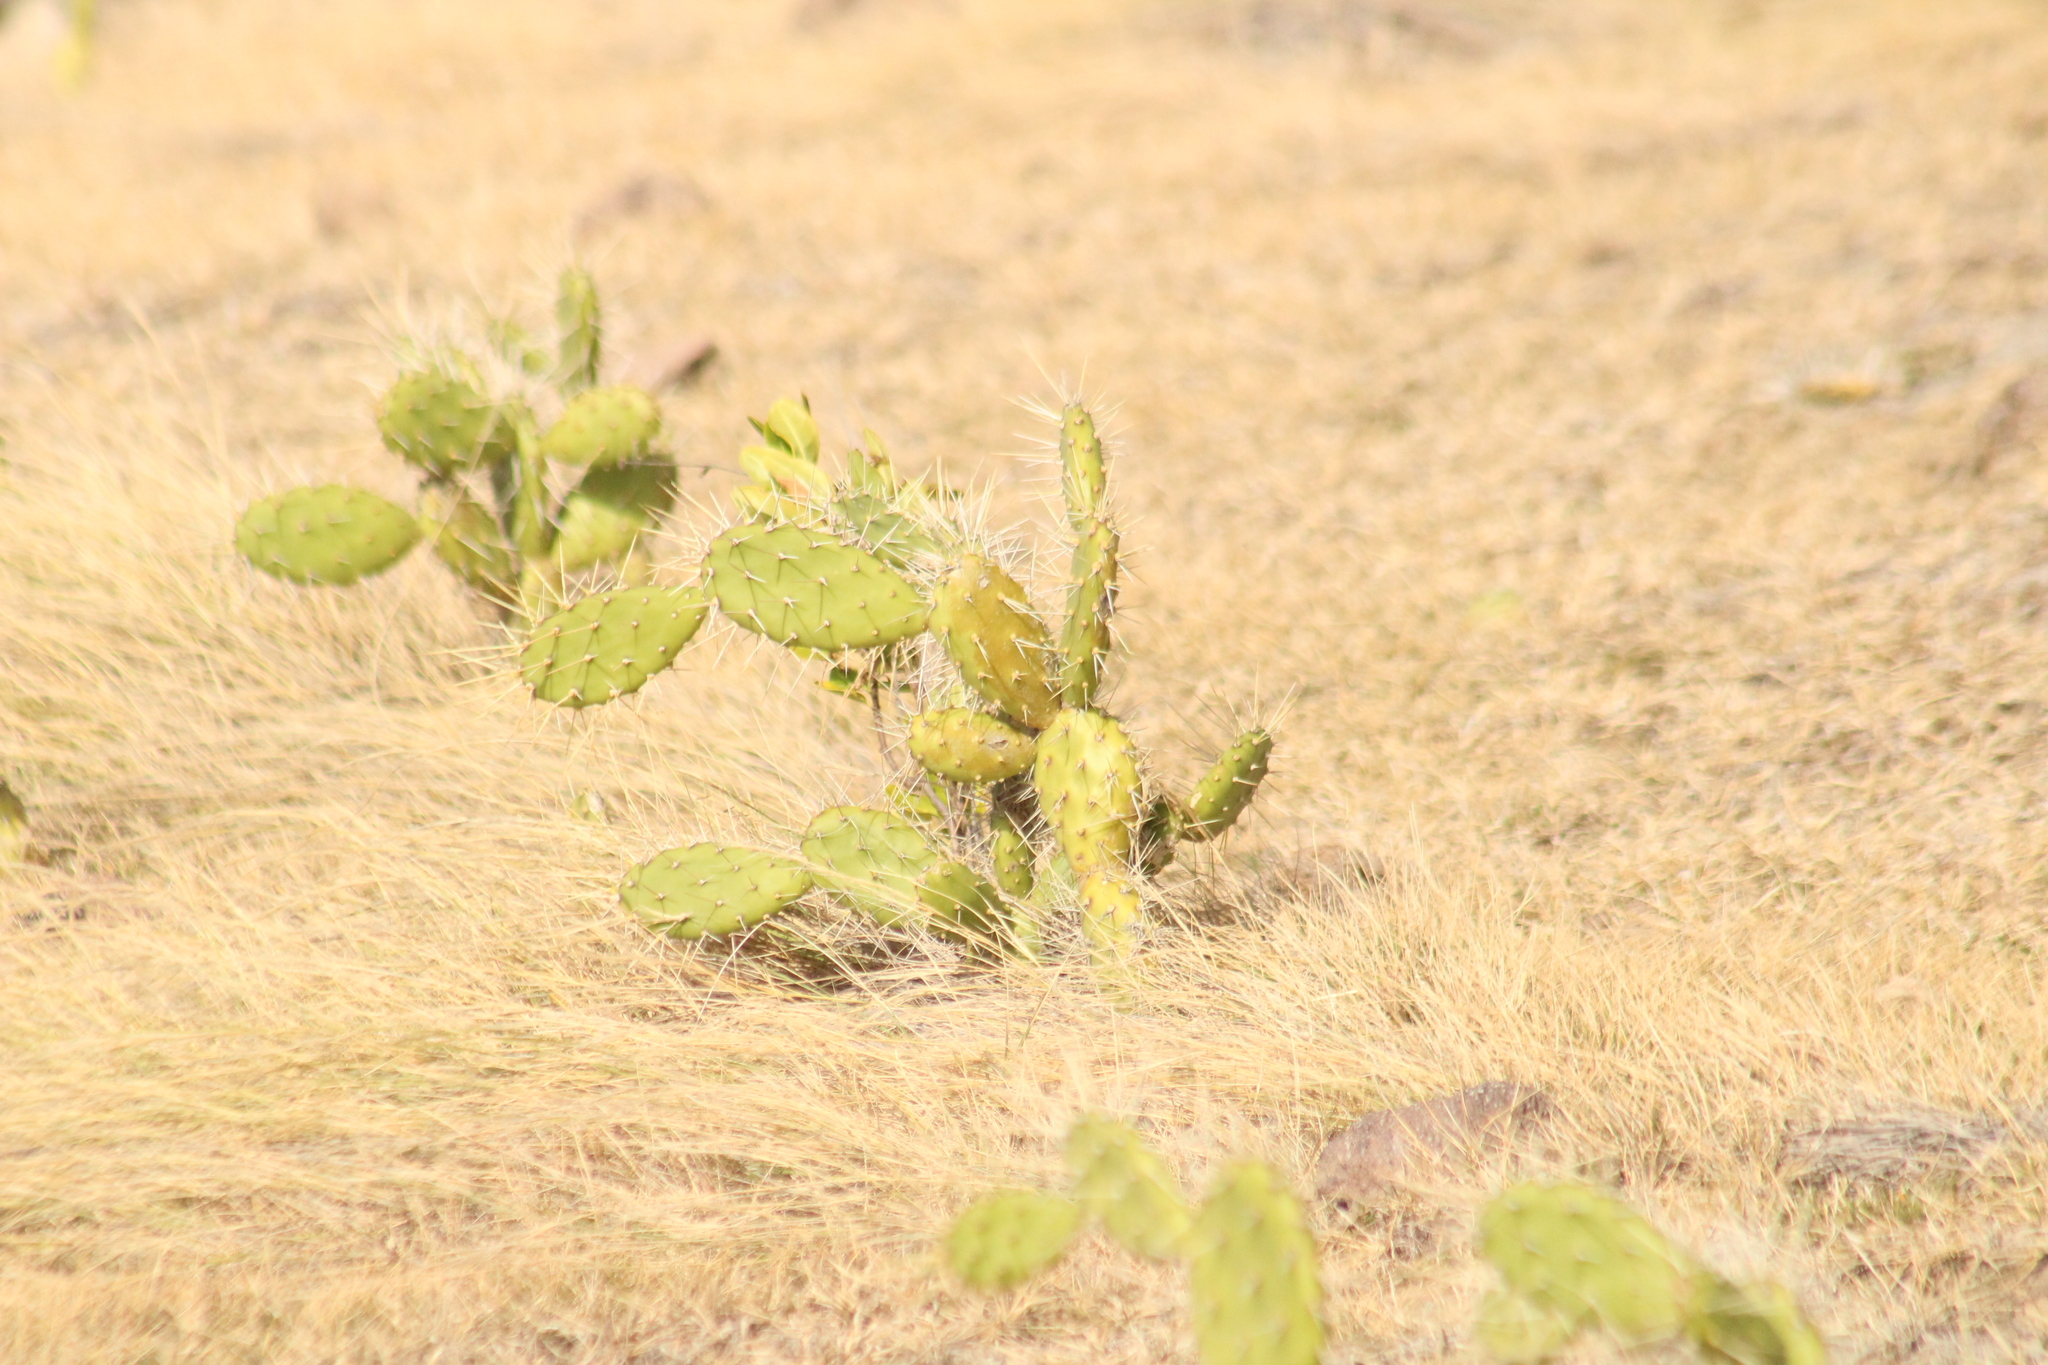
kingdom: Plantae
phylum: Tracheophyta
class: Magnoliopsida
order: Caryophyllales
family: Cactaceae
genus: Opuntia
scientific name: Opuntia triacanthos
